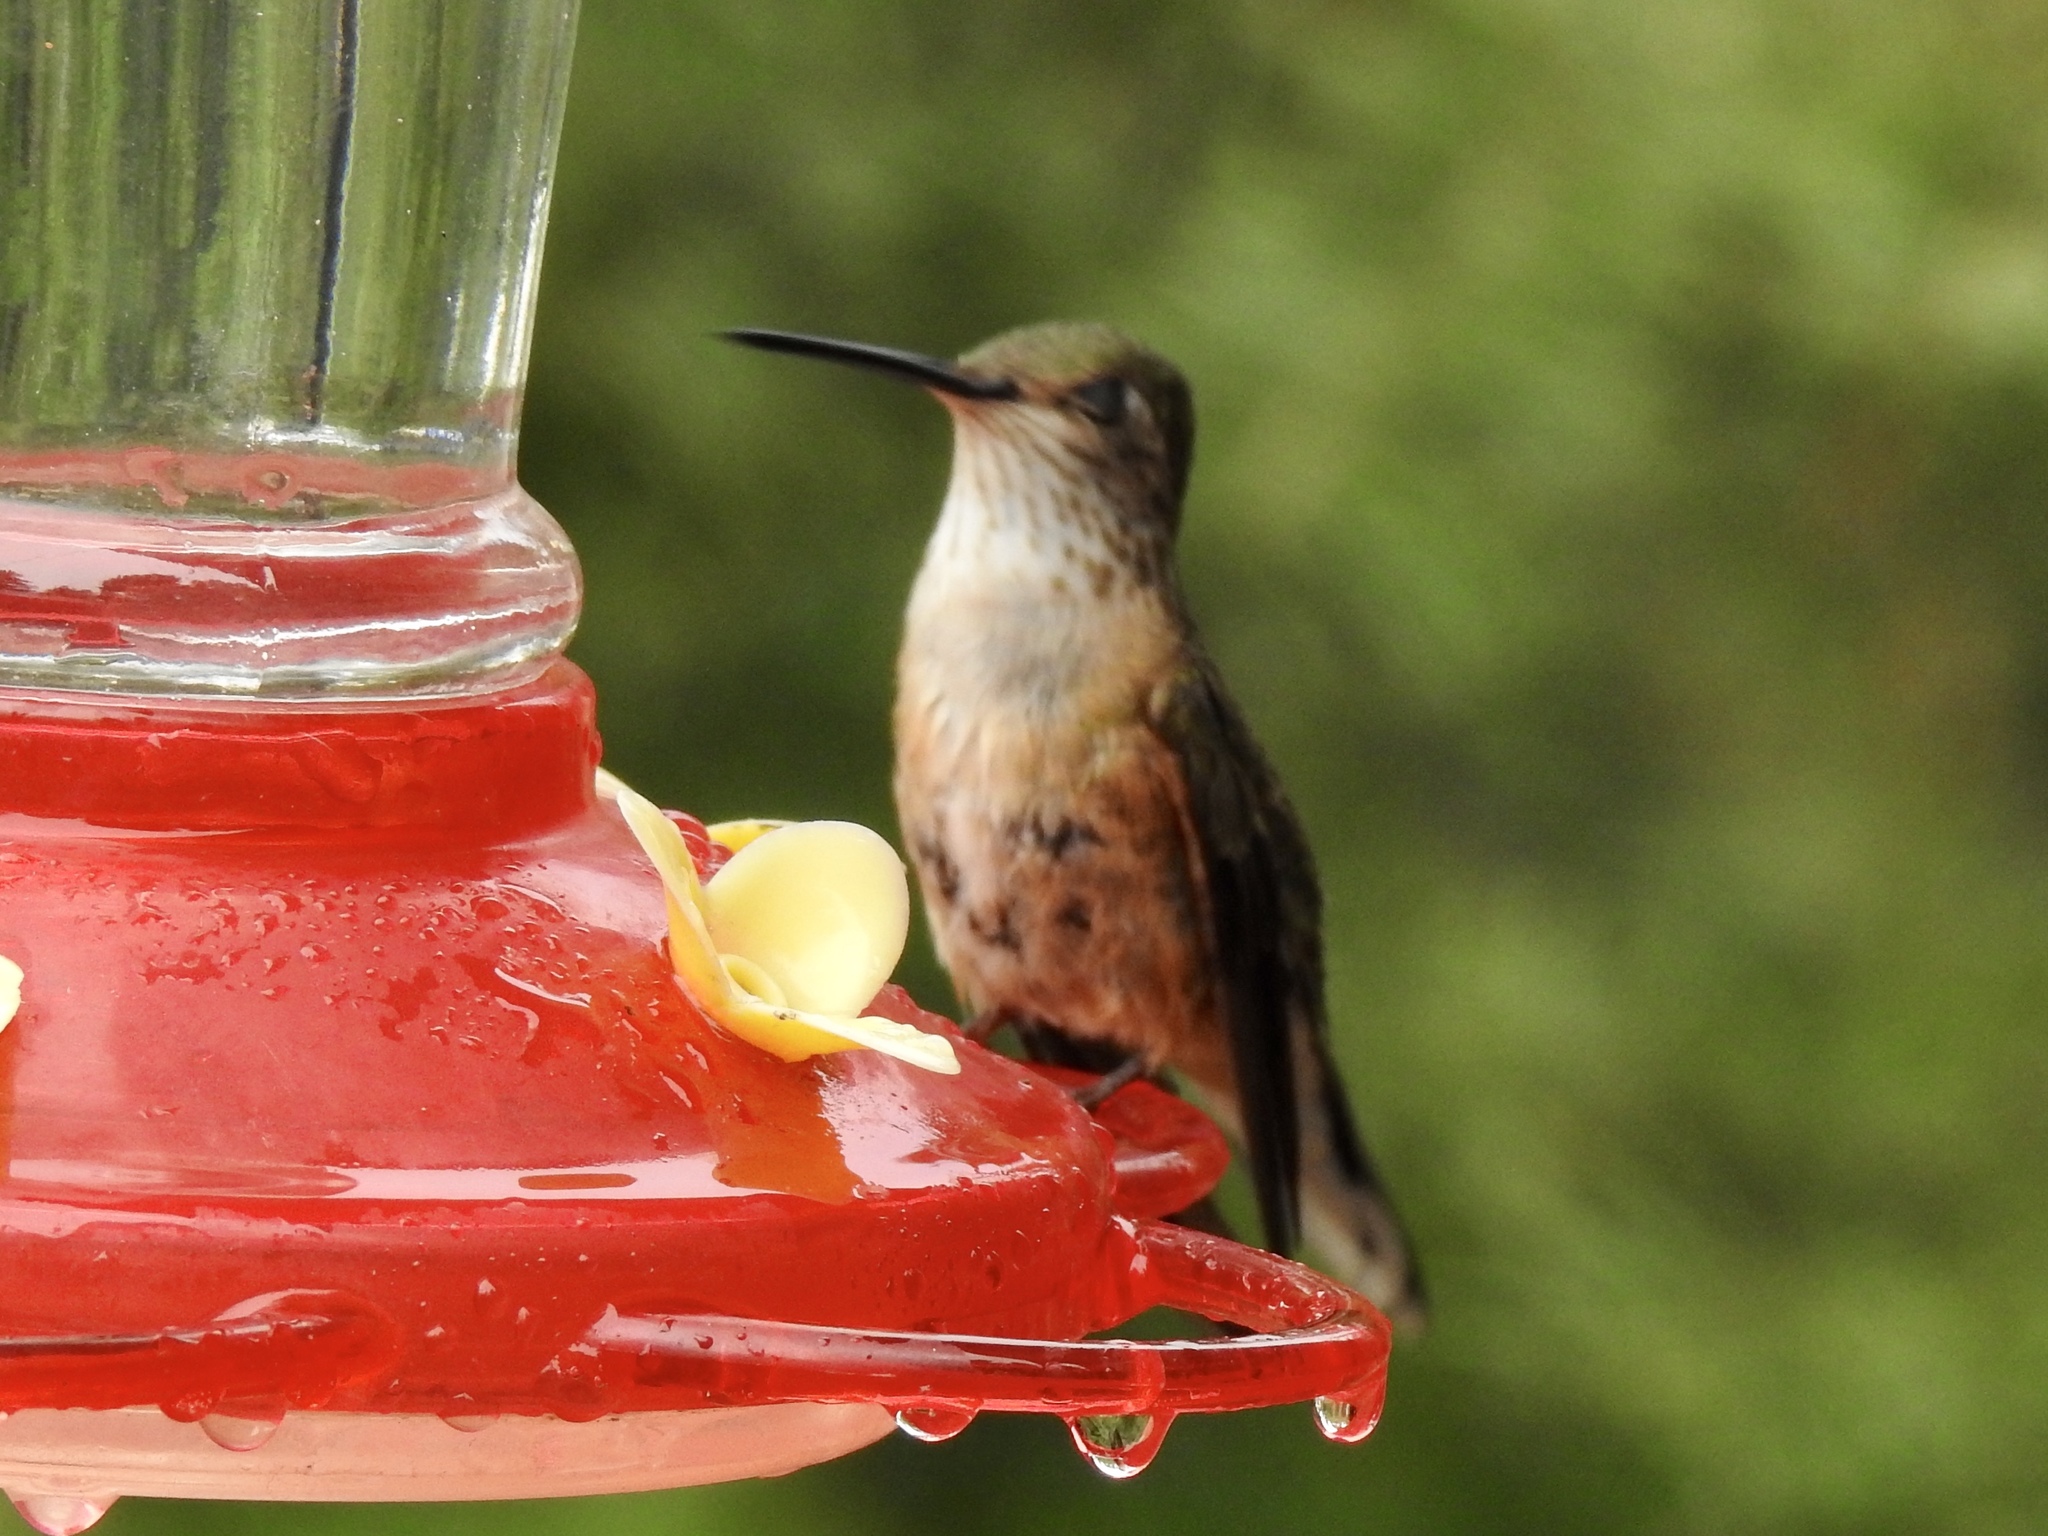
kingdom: Animalia
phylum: Chordata
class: Aves
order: Apodiformes
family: Trochilidae
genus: Selasphorus
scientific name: Selasphorus rufus
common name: Rufous hummingbird
